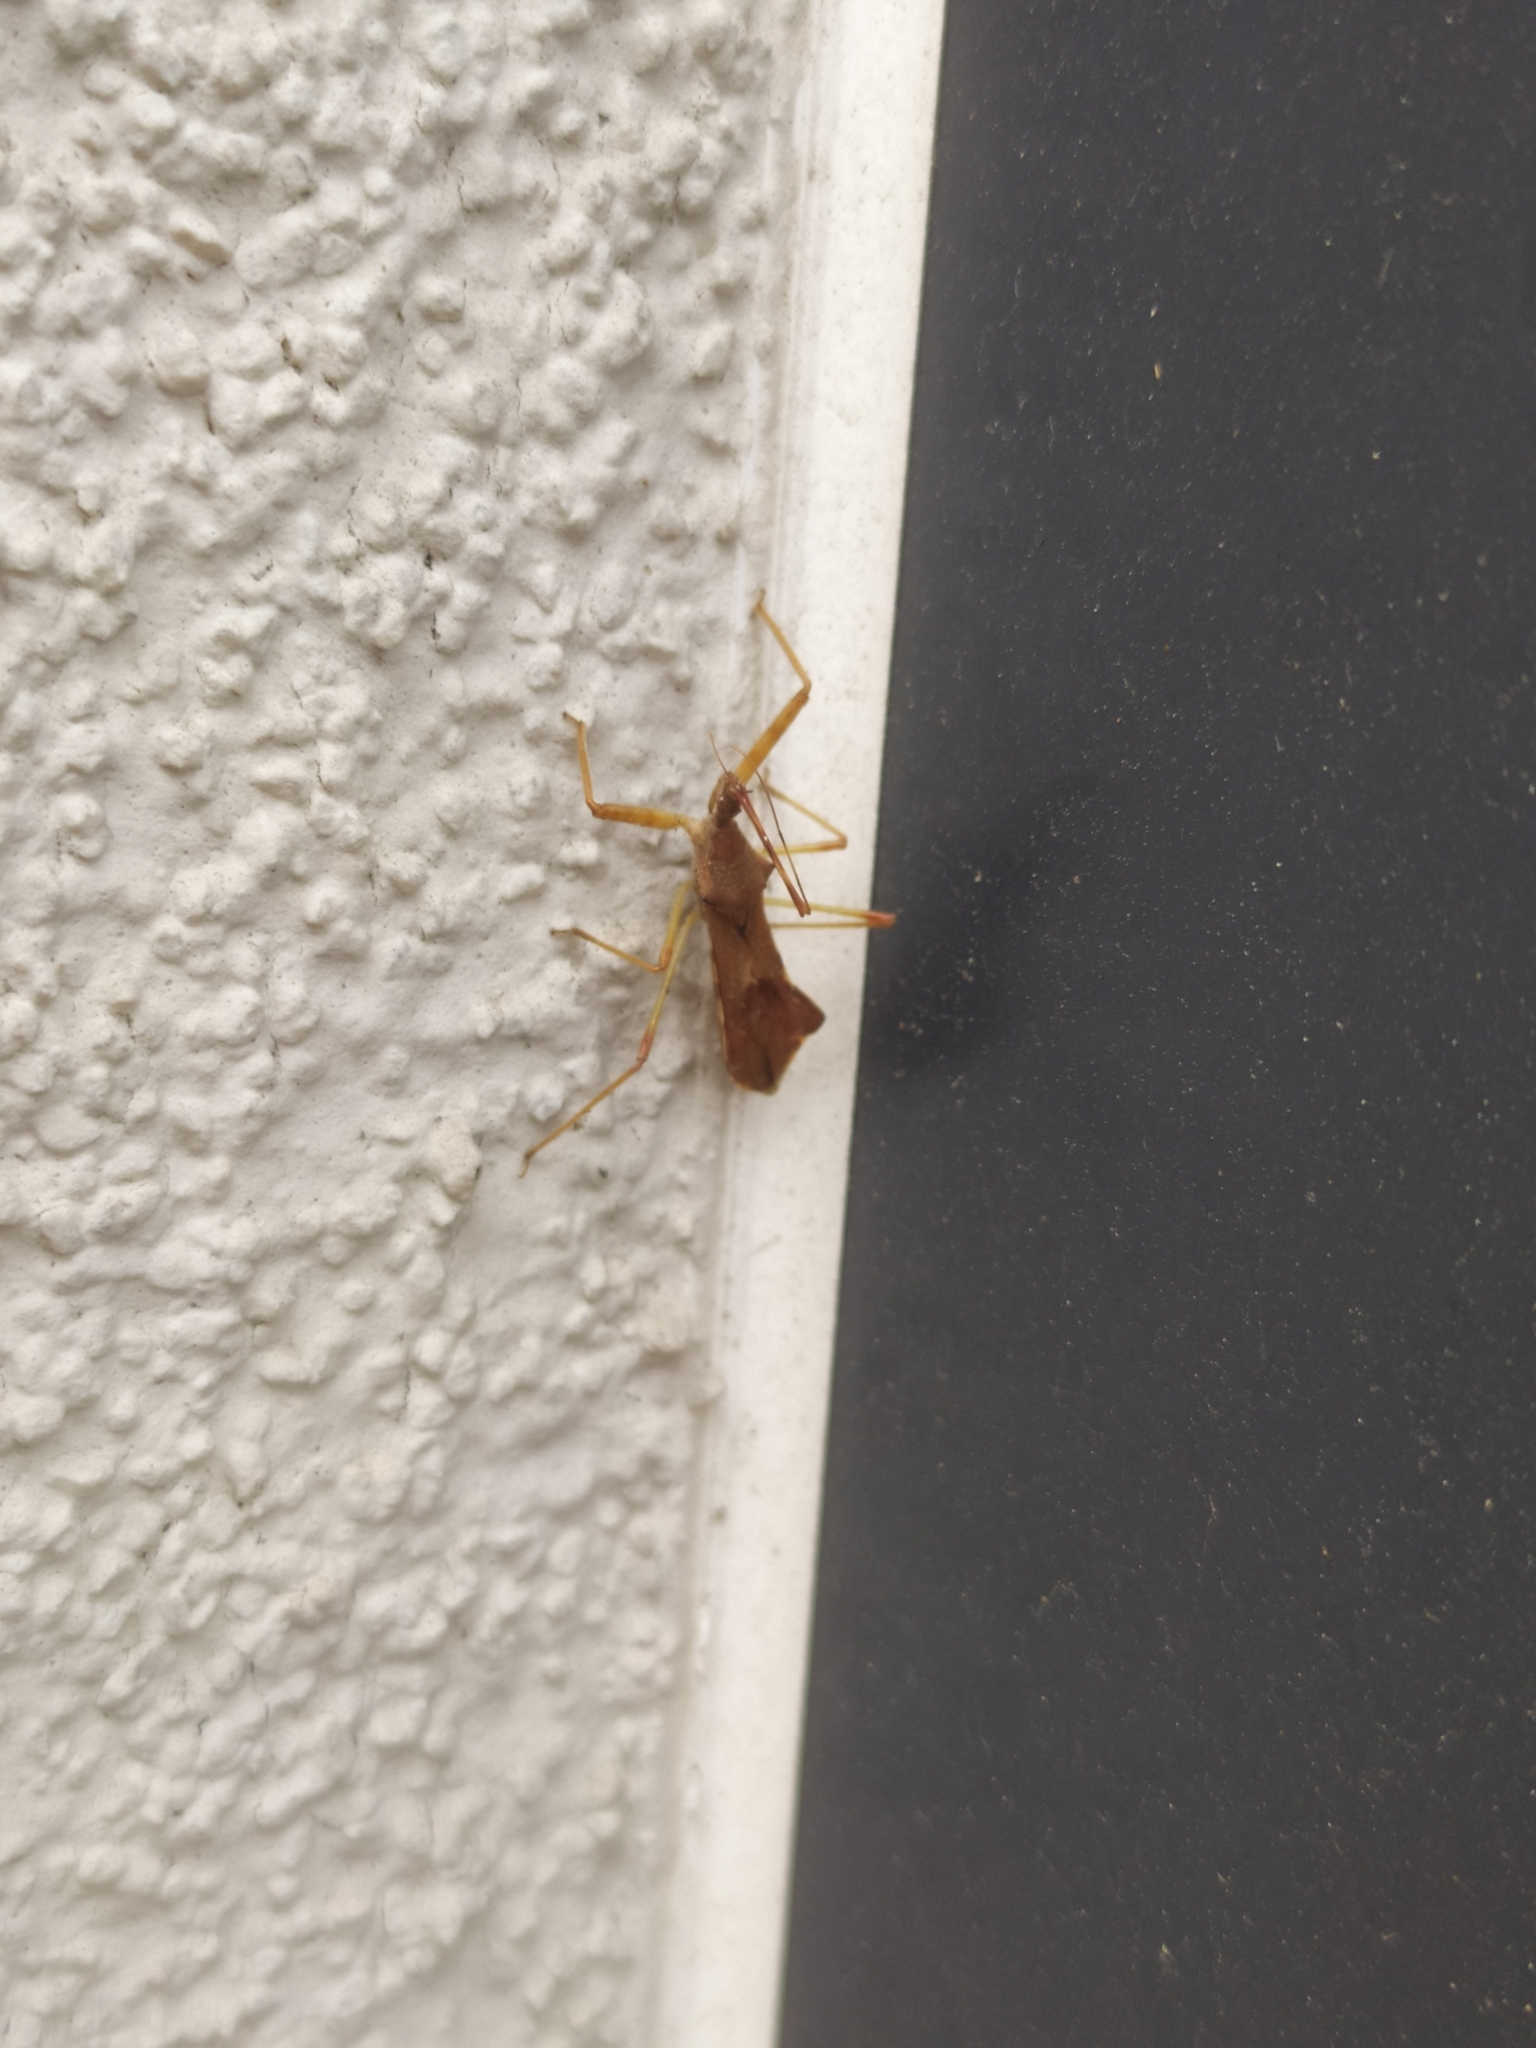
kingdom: Animalia
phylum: Arthropoda
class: Insecta
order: Hemiptera
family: Reduviidae
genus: Nagusta
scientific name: Nagusta goedelii
